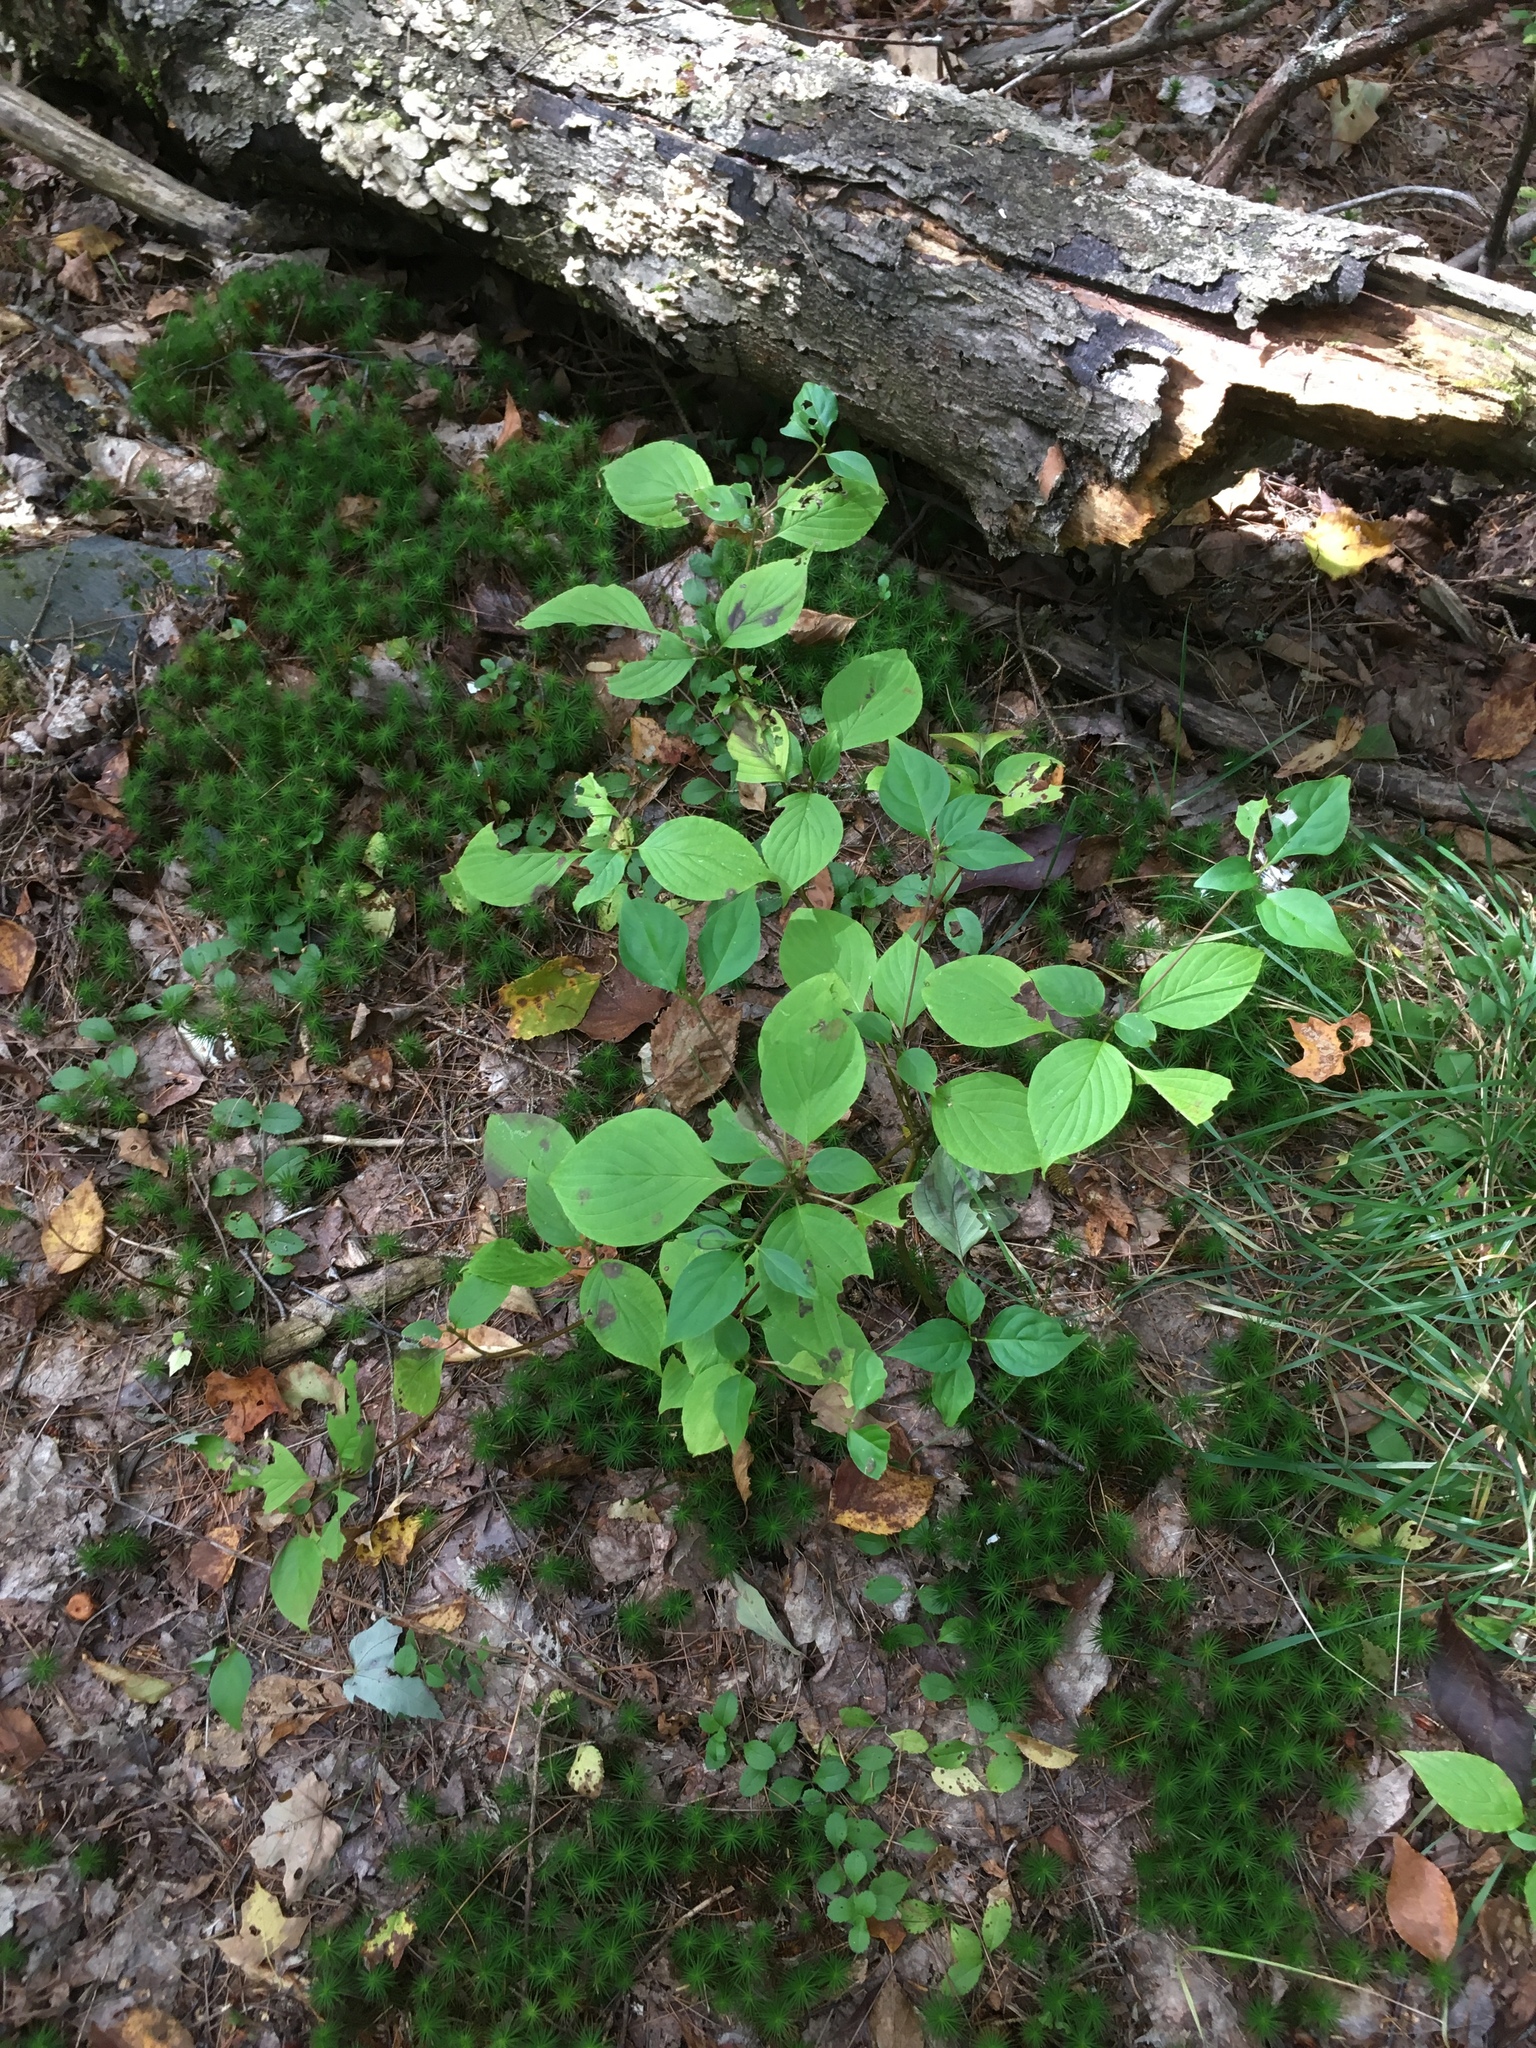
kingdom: Plantae
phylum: Tracheophyta
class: Magnoliopsida
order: Cornales
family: Cornaceae
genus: Cornus
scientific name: Cornus alternifolia
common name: Pagoda dogwood
